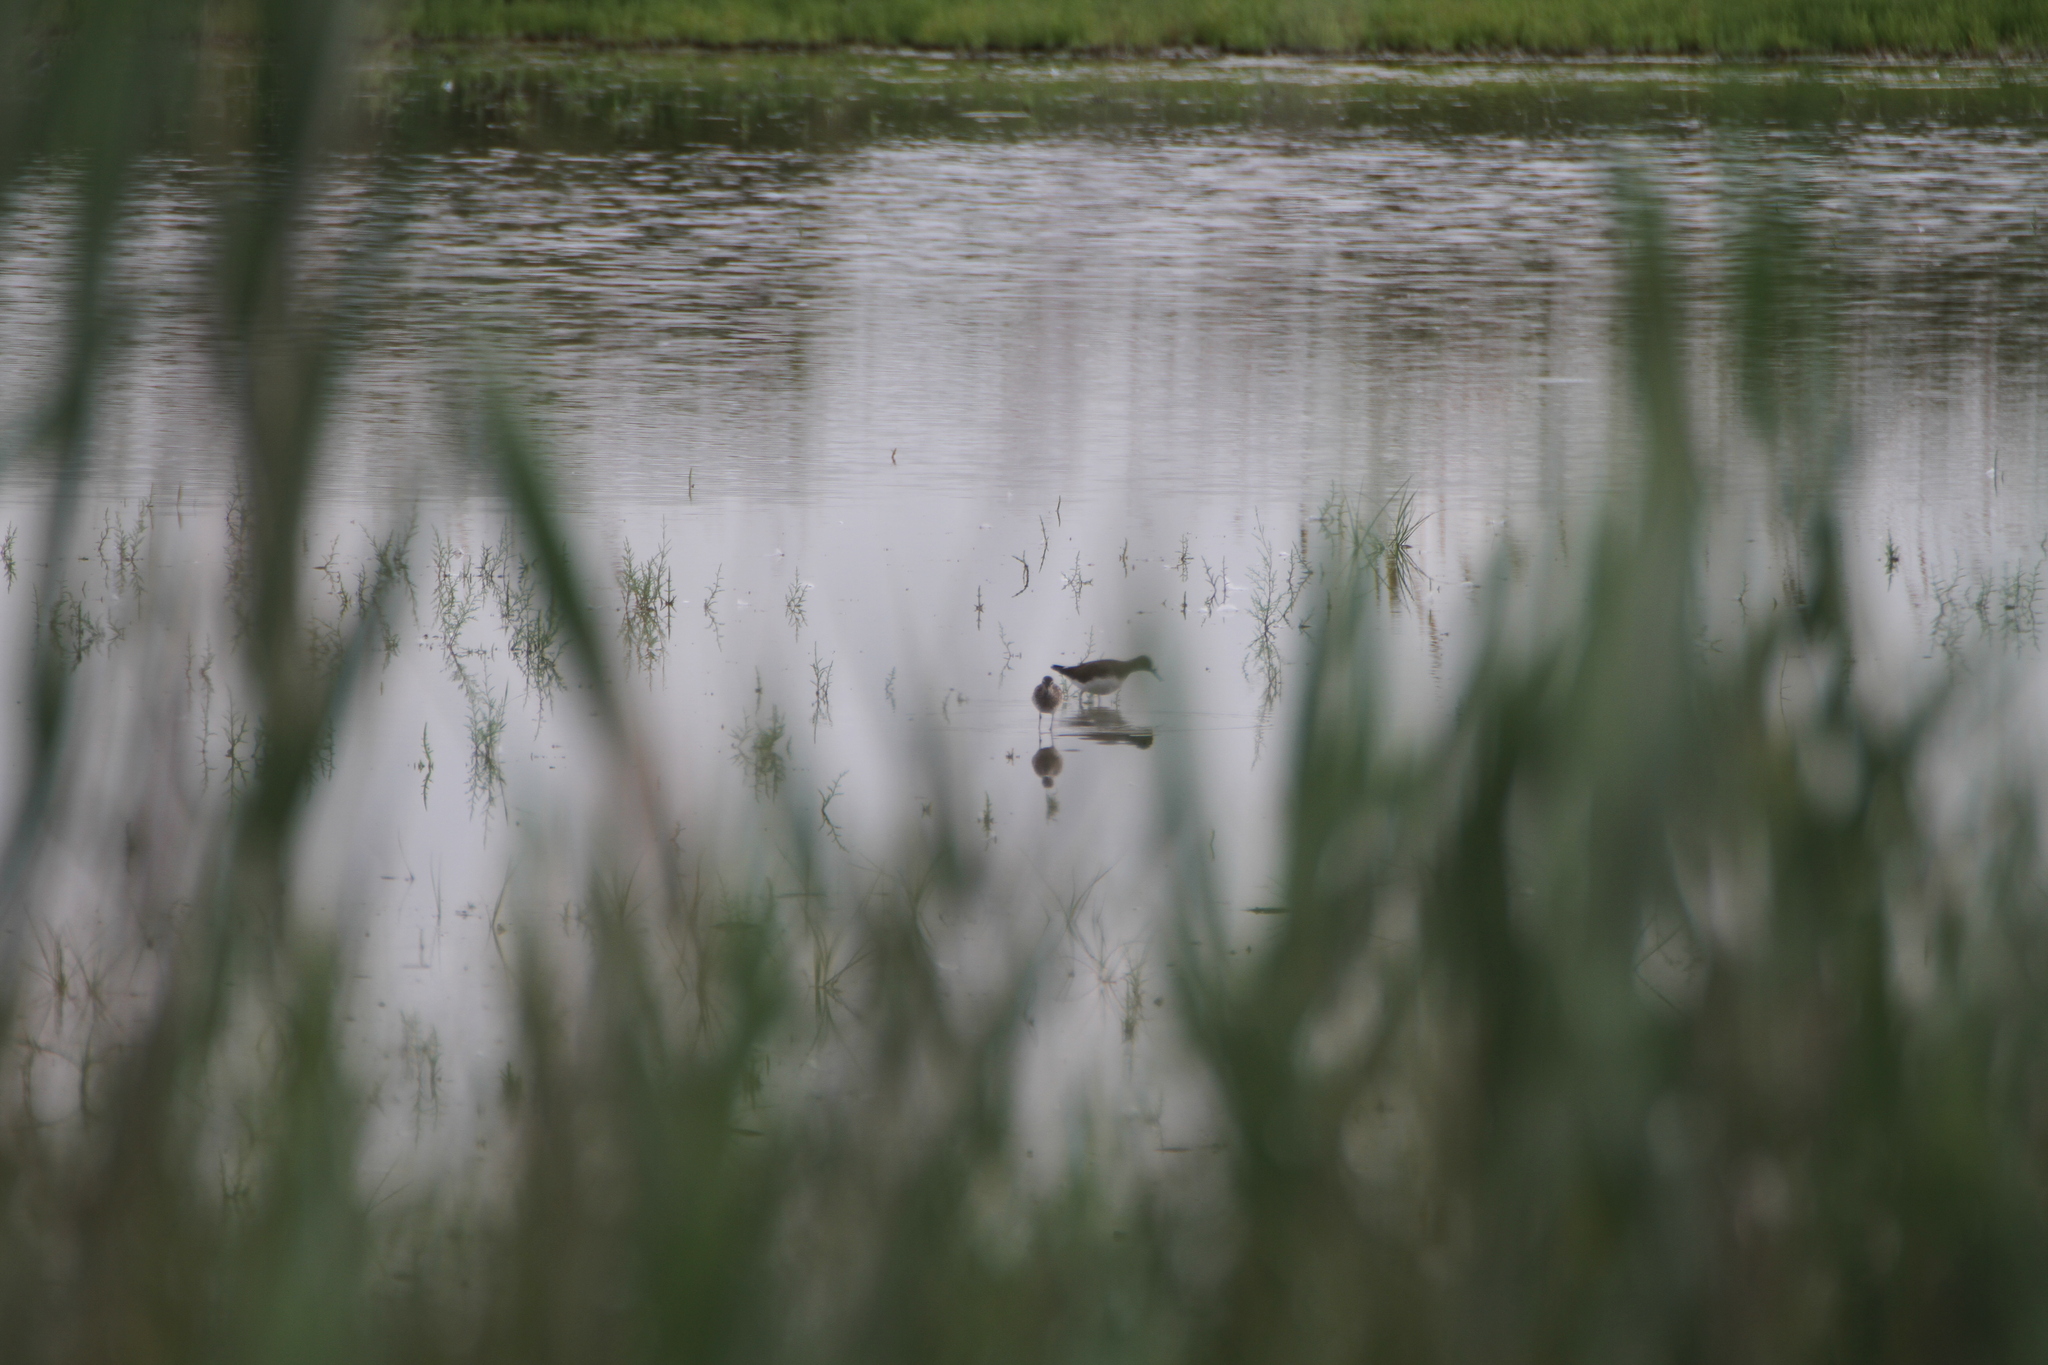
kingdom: Animalia
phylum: Chordata
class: Aves
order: Charadriiformes
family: Scolopacidae
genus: Tringa
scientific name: Tringa ochropus
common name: Green sandpiper
